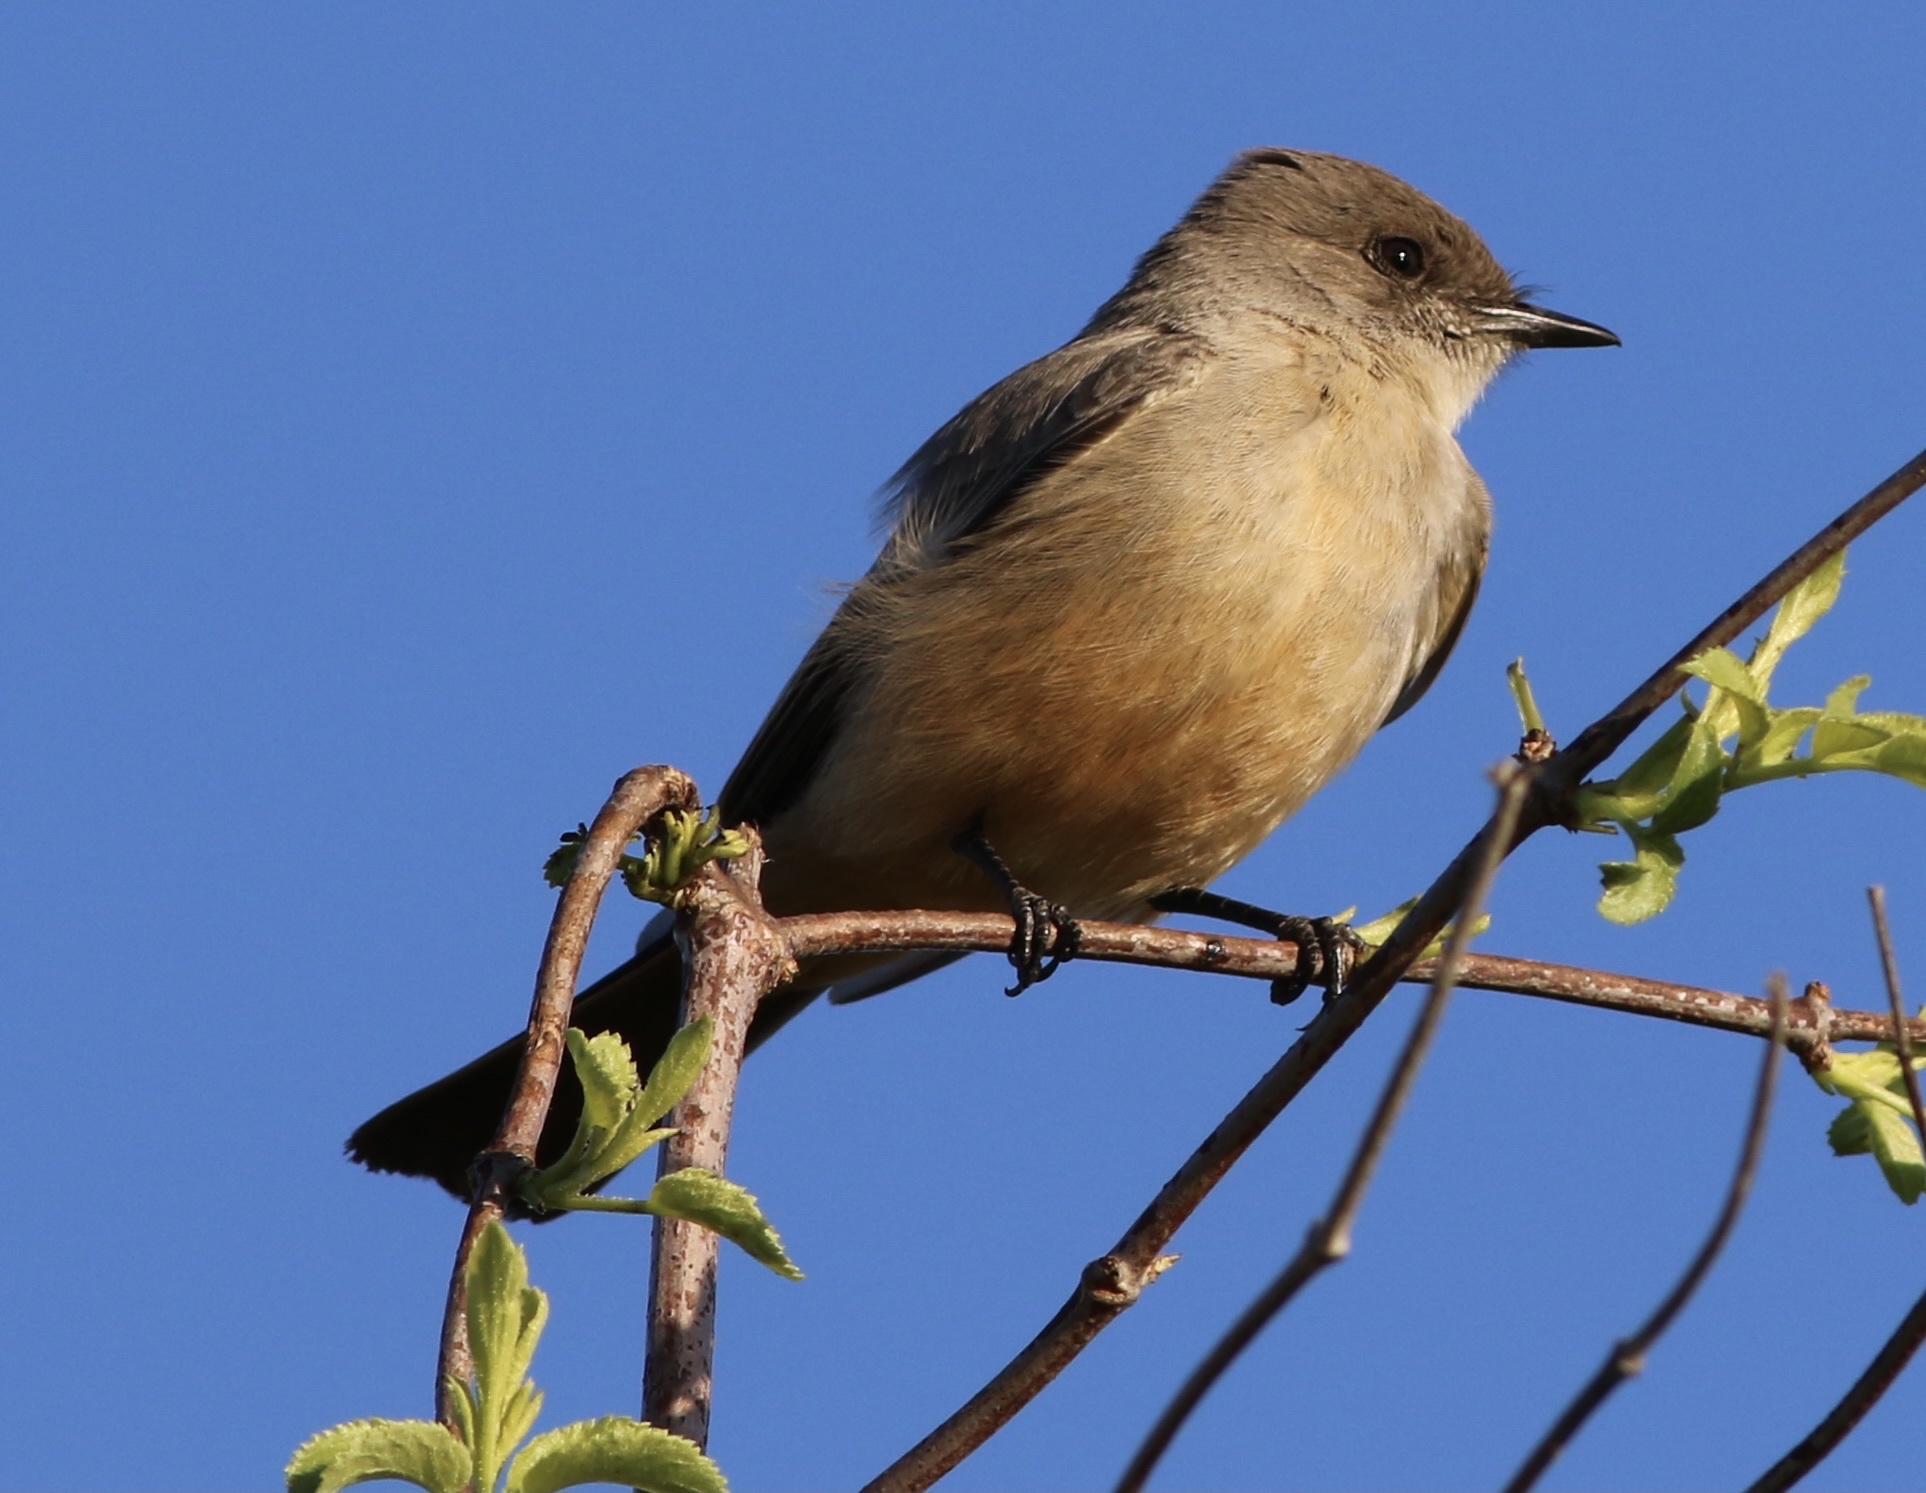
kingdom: Animalia
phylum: Chordata
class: Aves
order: Passeriformes
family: Tyrannidae
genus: Sayornis
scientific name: Sayornis saya
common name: Say's phoebe
